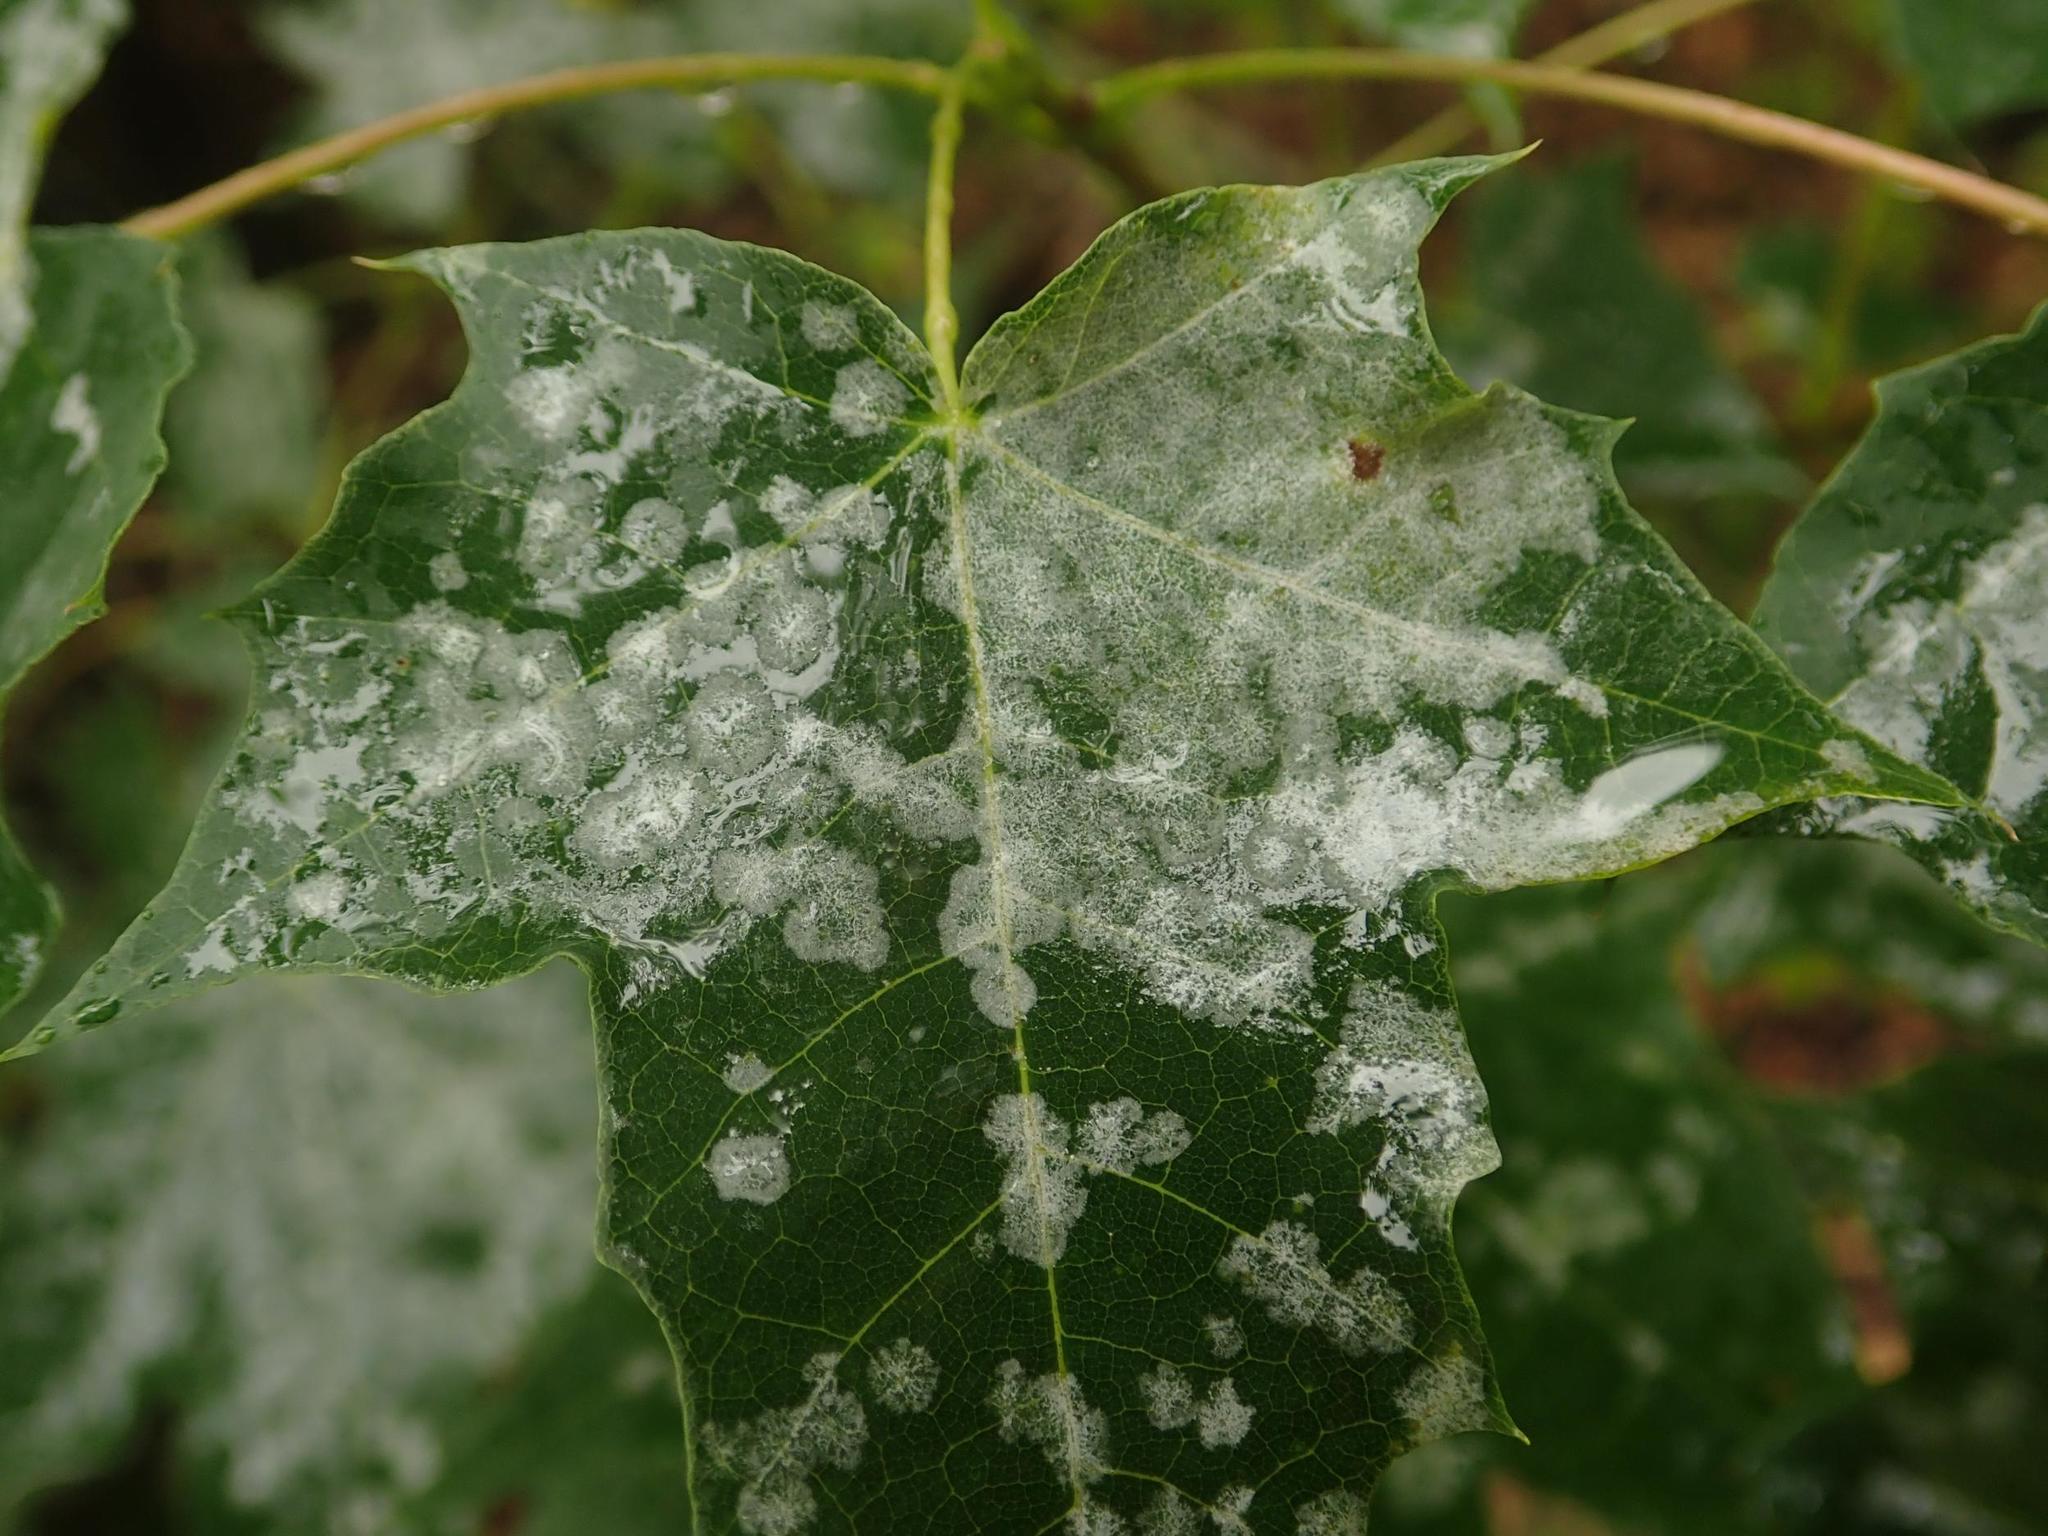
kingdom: Fungi
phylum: Ascomycota
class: Leotiomycetes
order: Helotiales
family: Erysiphaceae
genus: Sawadaea
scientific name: Sawadaea tulasnei
